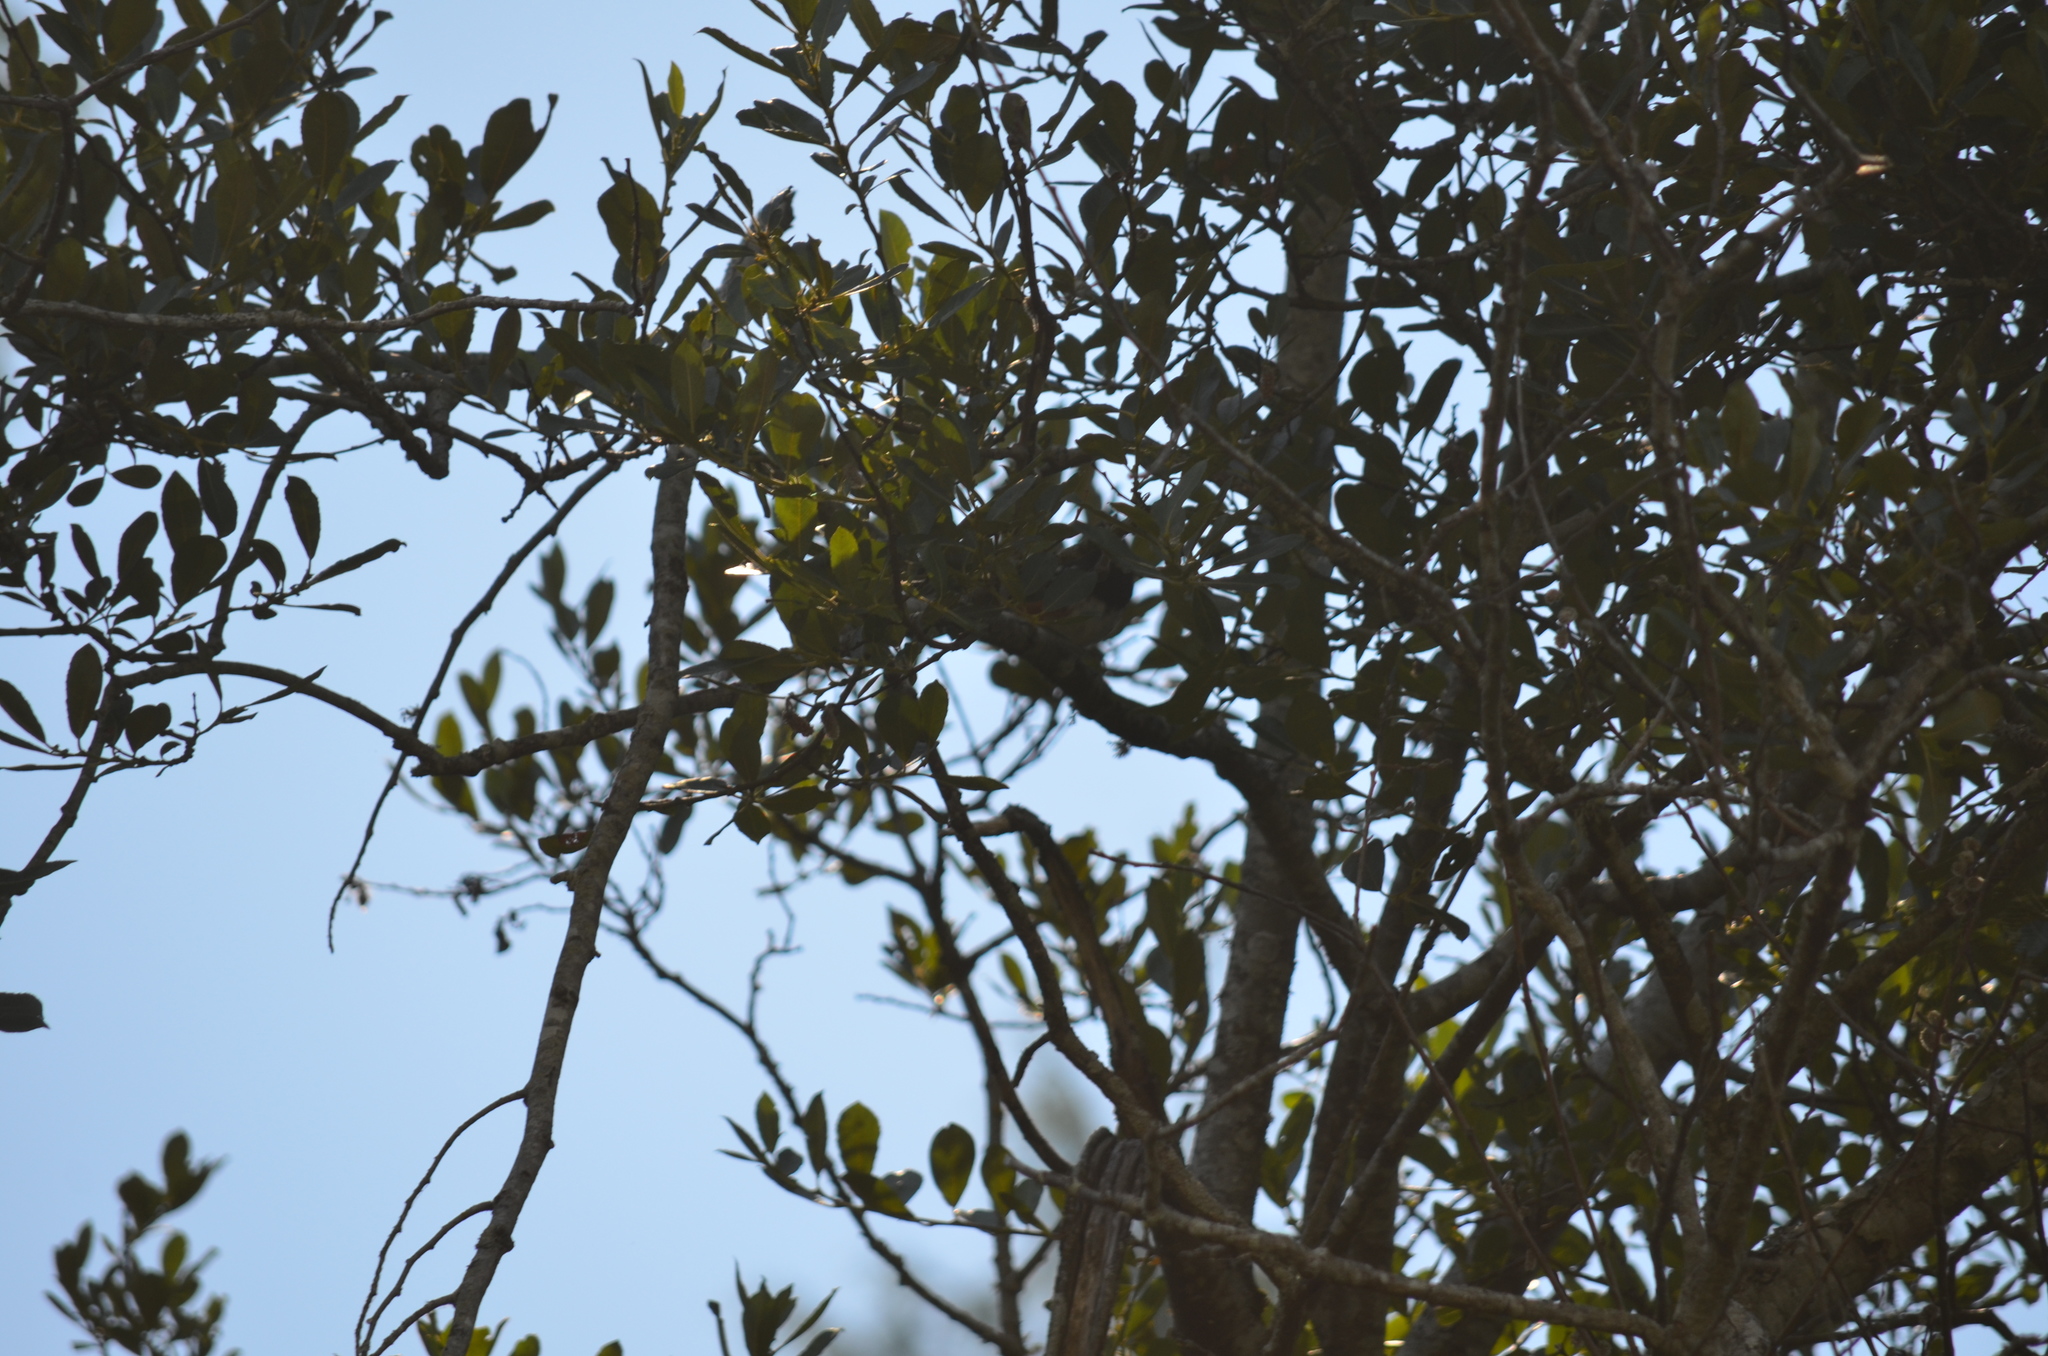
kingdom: Animalia
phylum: Chordata
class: Aves
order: Passeriformes
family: Passerellidae
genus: Pipilo
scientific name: Pipilo maculatus
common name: Spotted towhee
